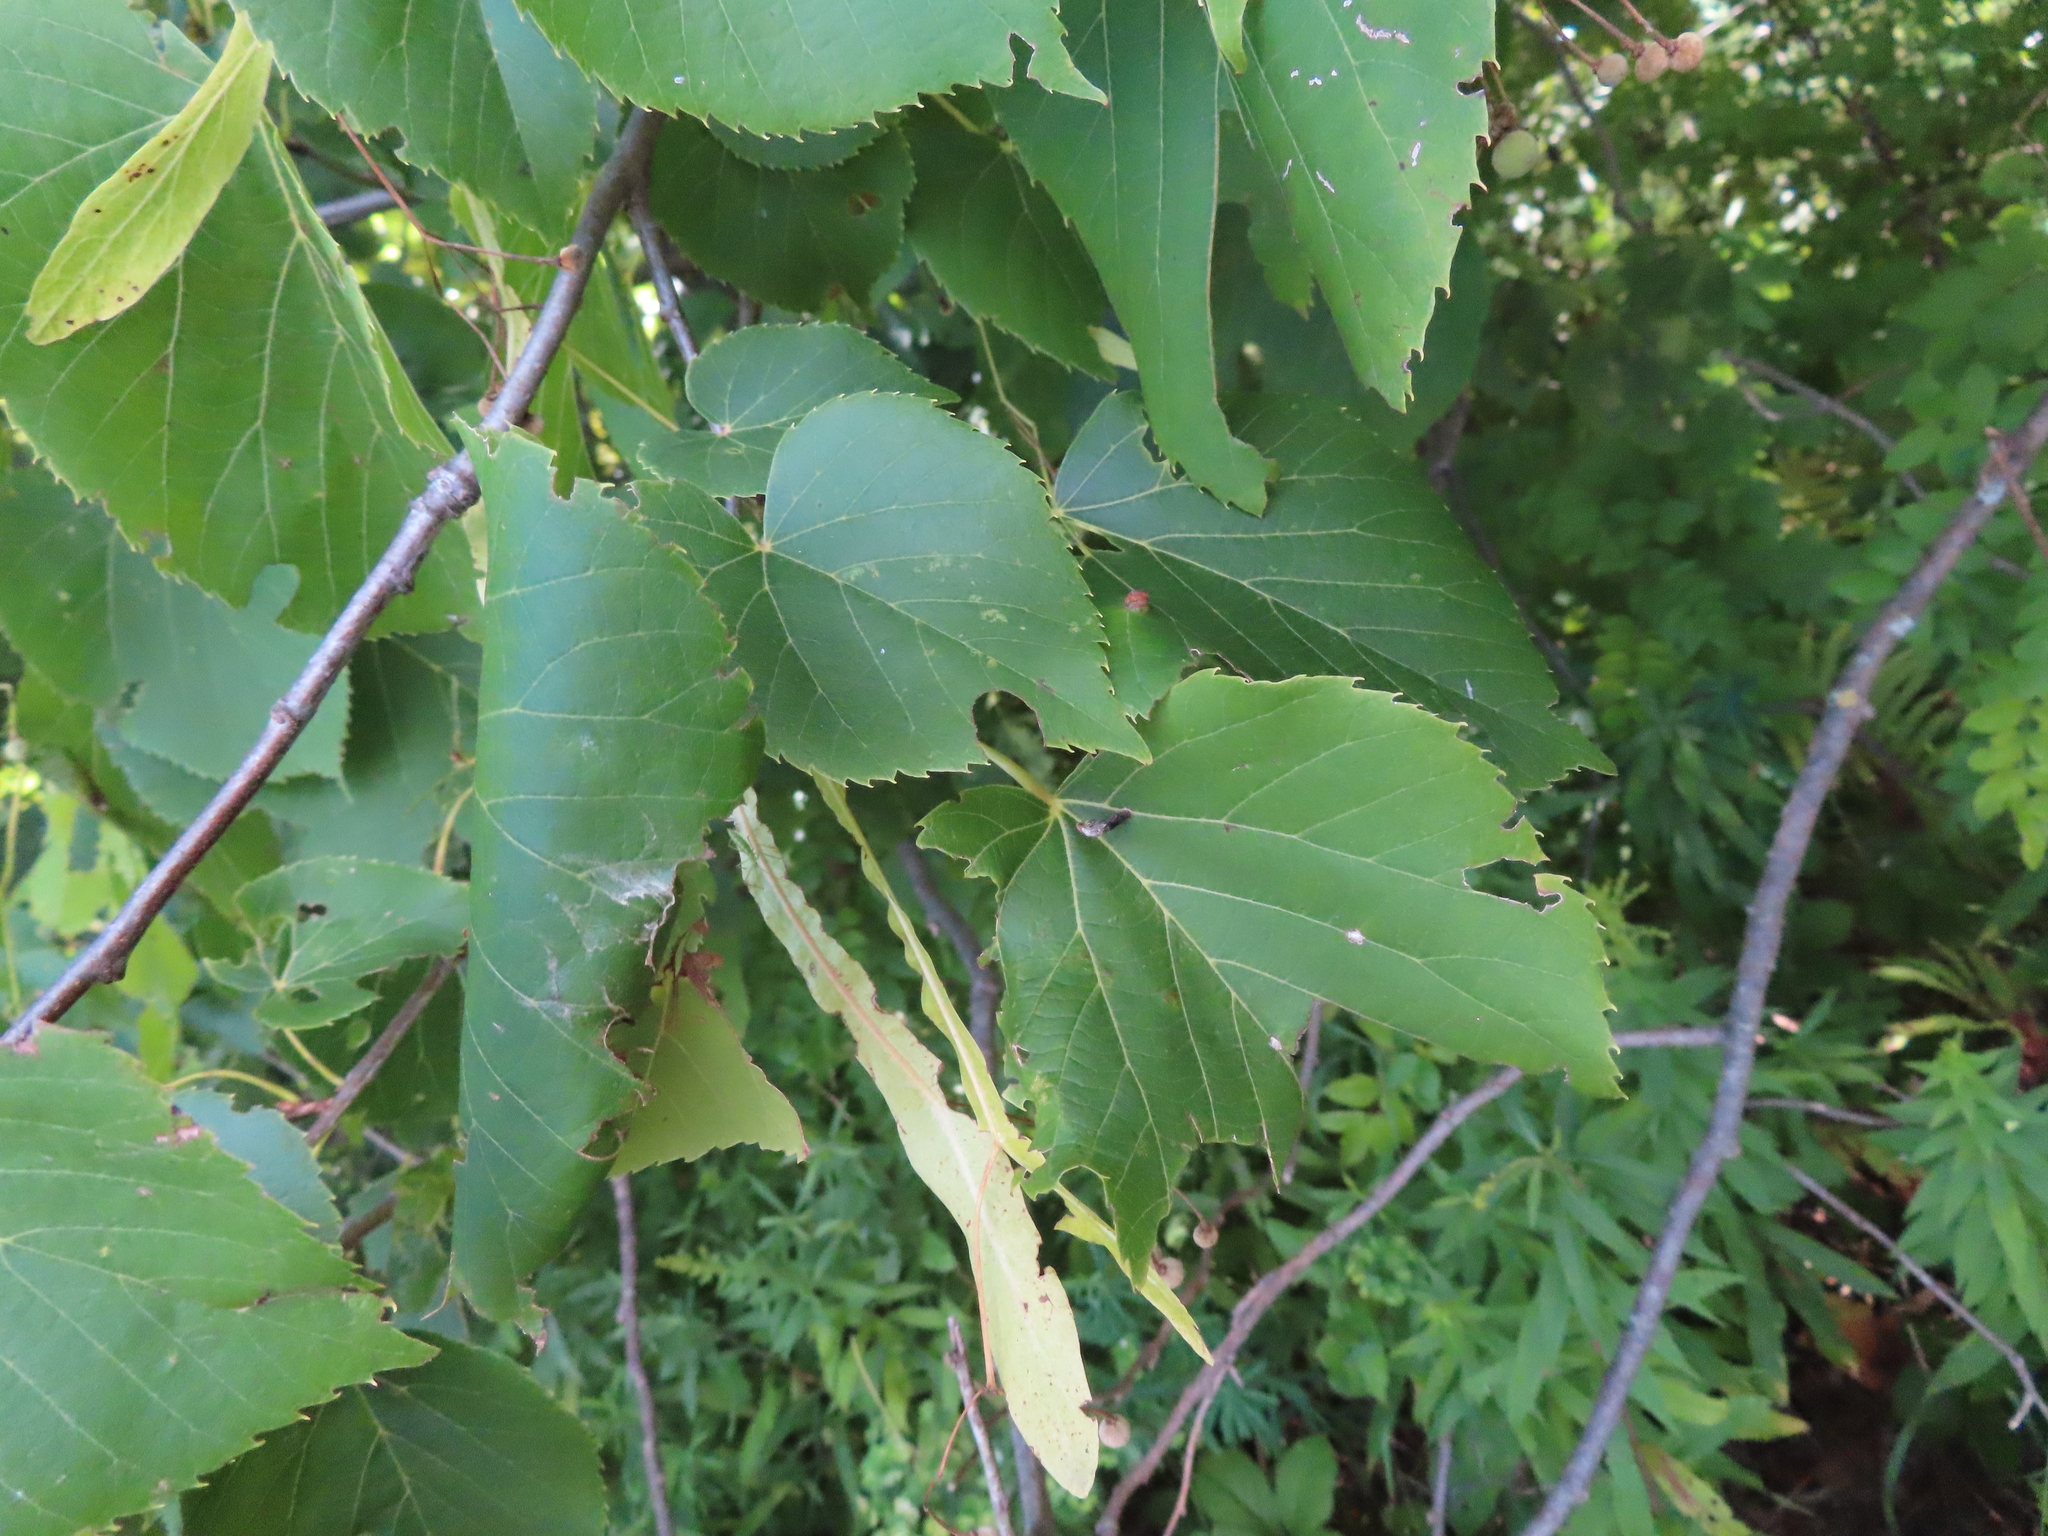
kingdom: Plantae
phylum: Tracheophyta
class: Magnoliopsida
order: Malvales
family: Malvaceae
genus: Tilia
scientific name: Tilia americana
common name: Basswood
